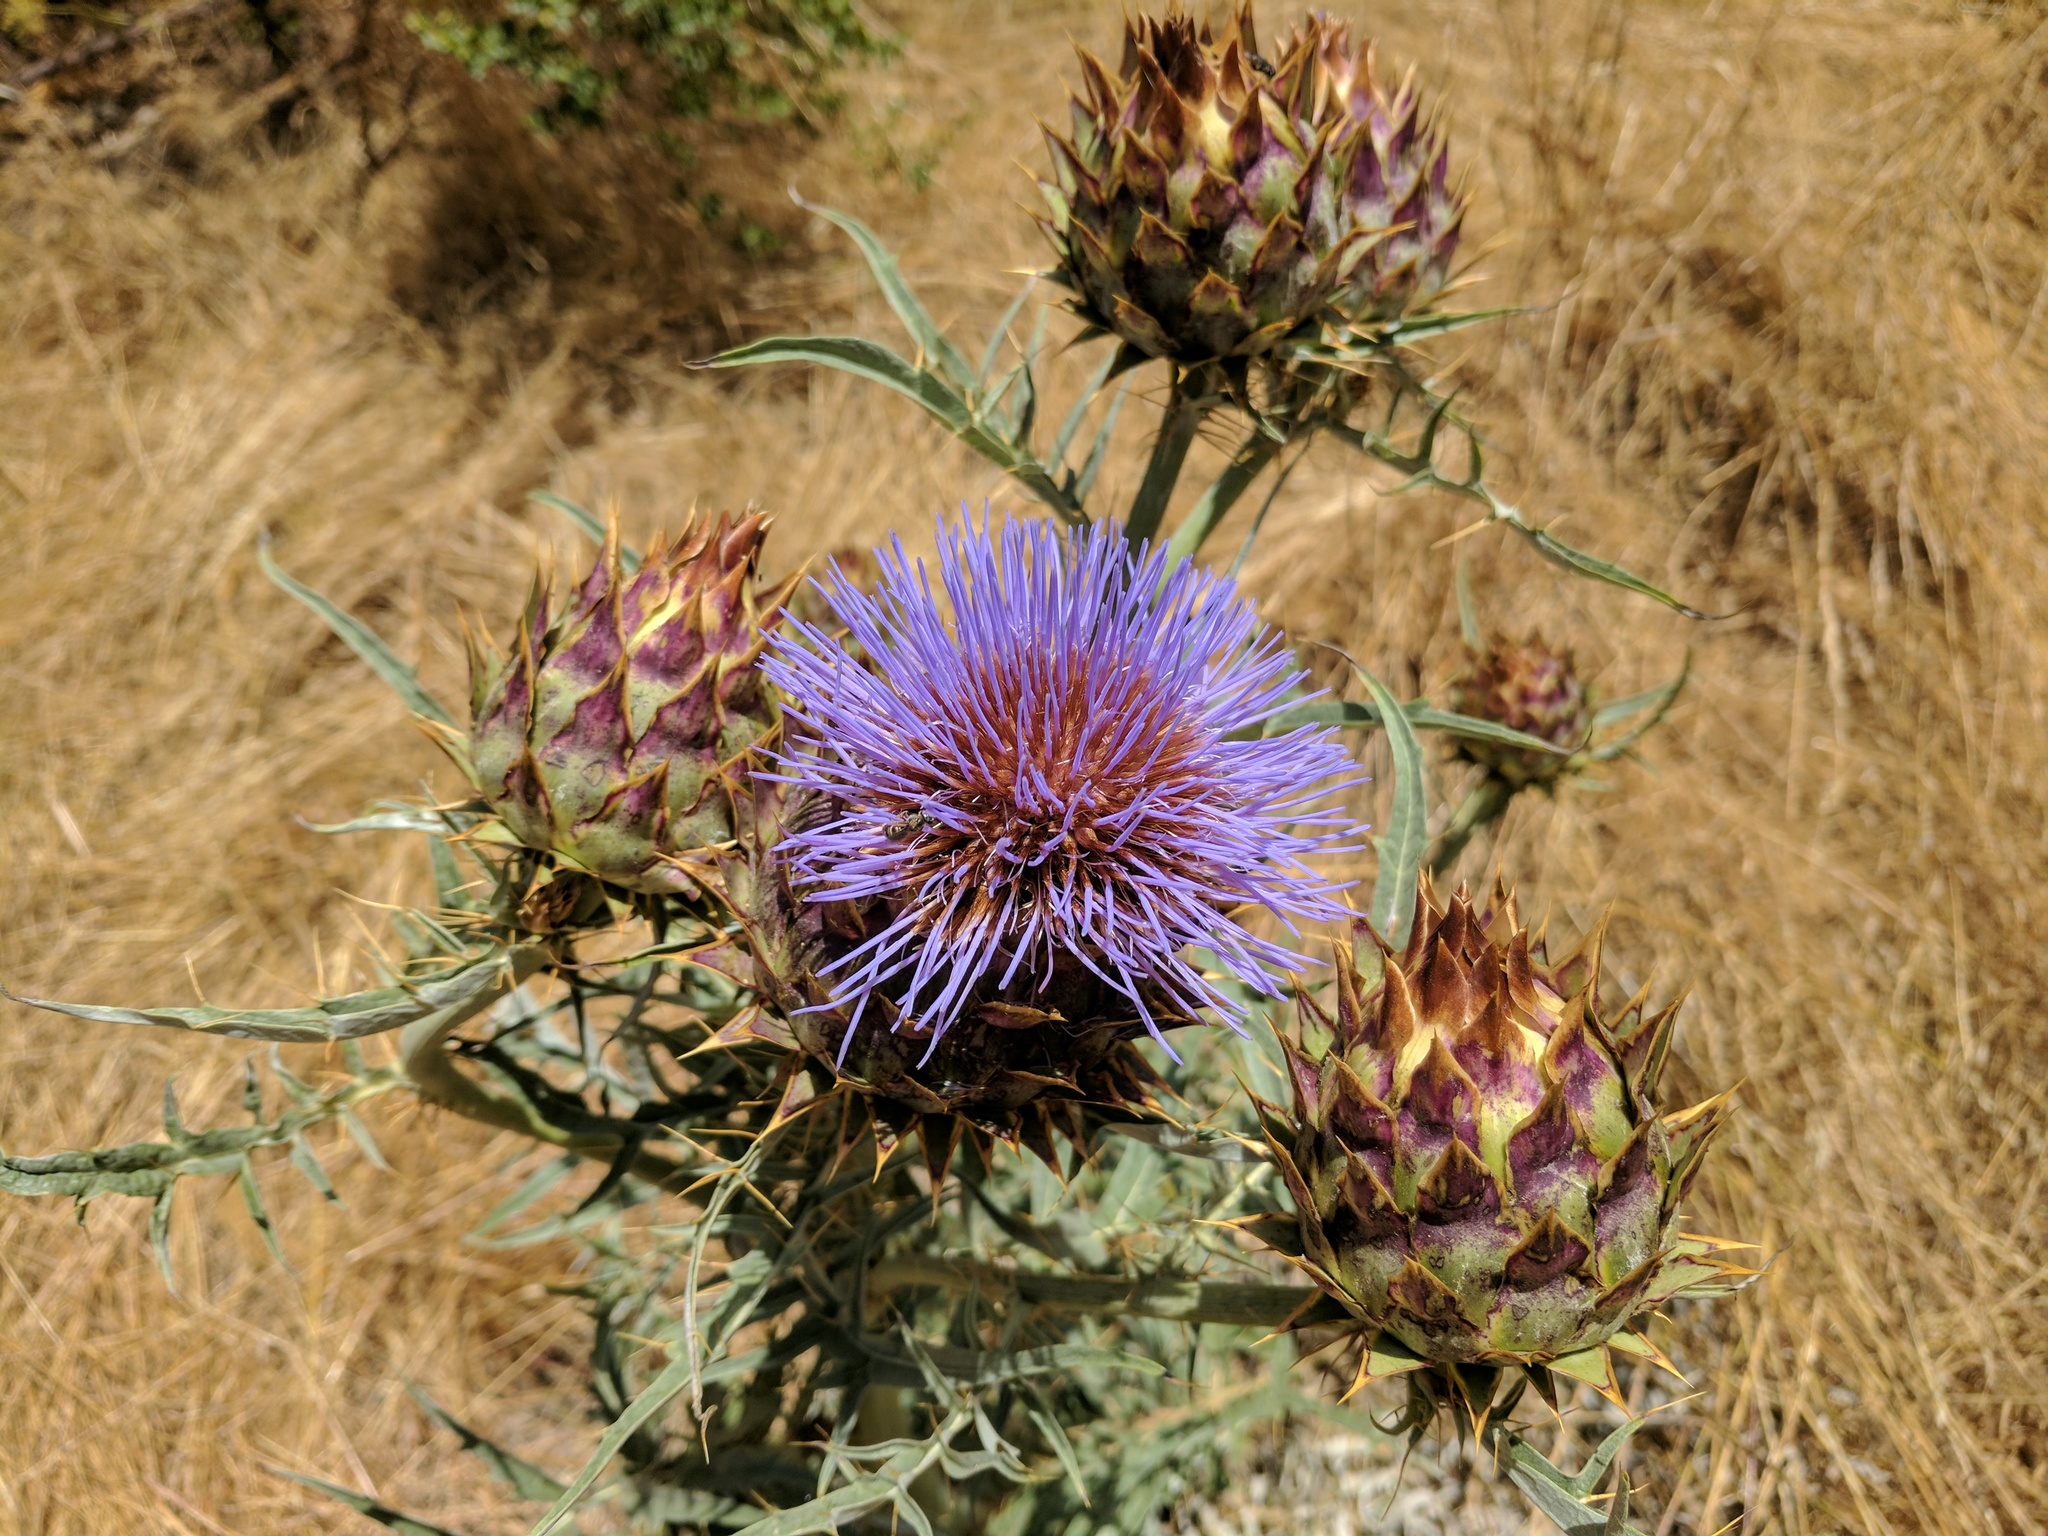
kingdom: Plantae
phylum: Tracheophyta
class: Magnoliopsida
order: Asterales
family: Asteraceae
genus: Cynara
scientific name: Cynara cardunculus
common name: Globe artichoke
